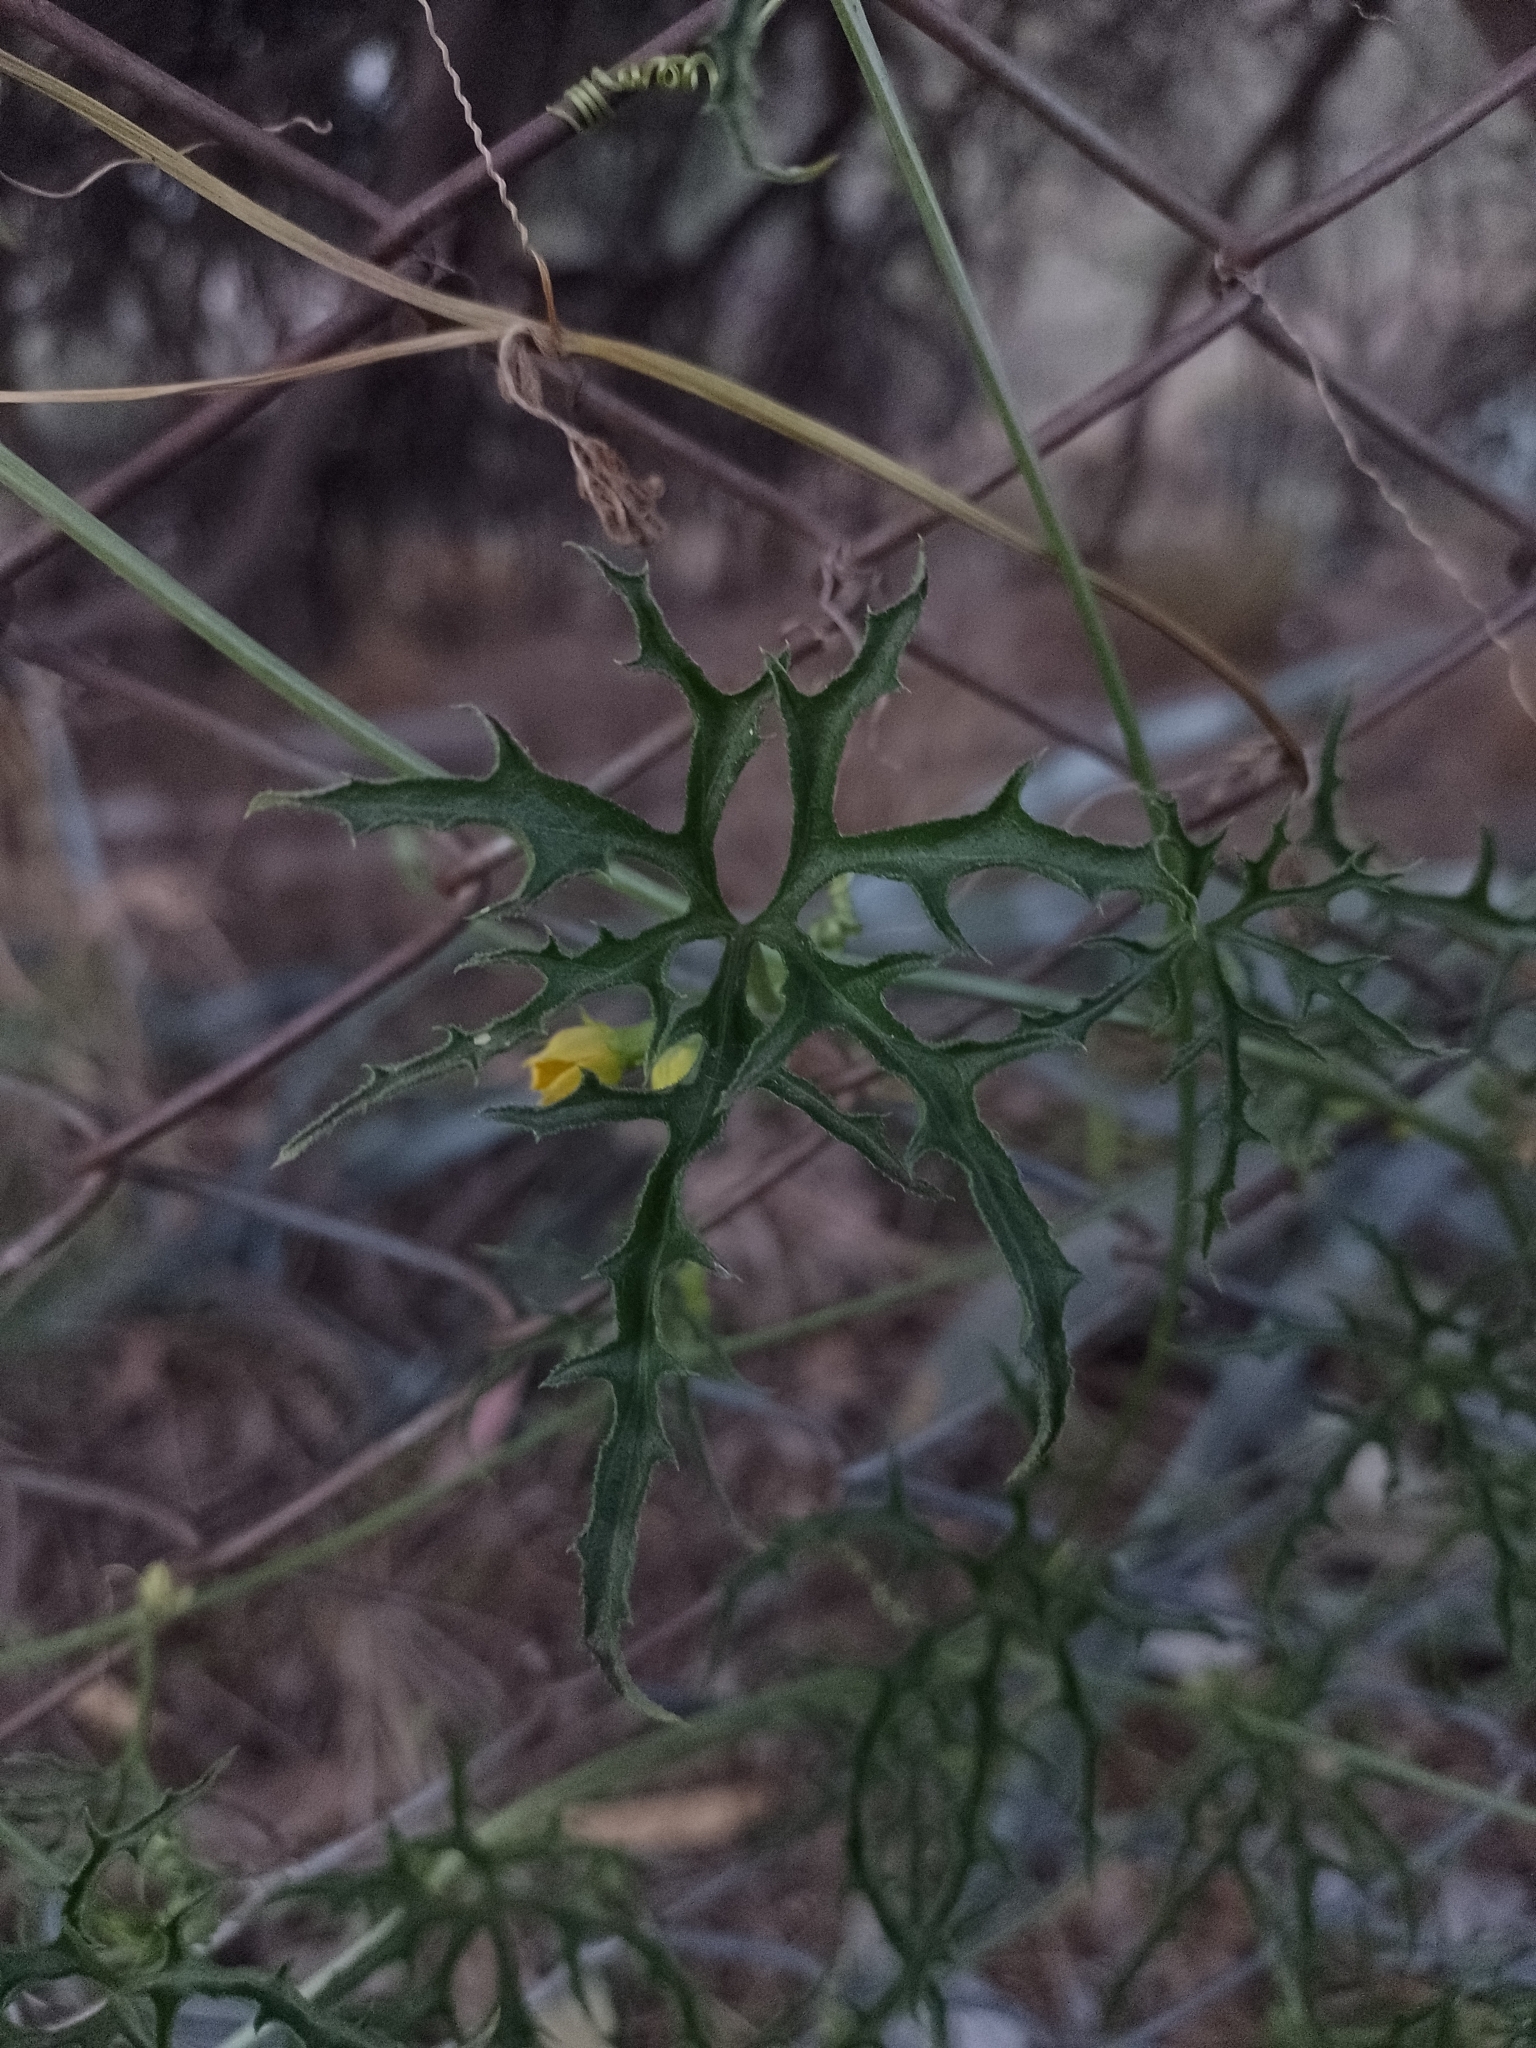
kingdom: Plantae
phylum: Tracheophyta
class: Magnoliopsida
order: Cucurbitales
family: Cucurbitaceae
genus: Cucurbitella
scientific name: Cucurbitella asperata
